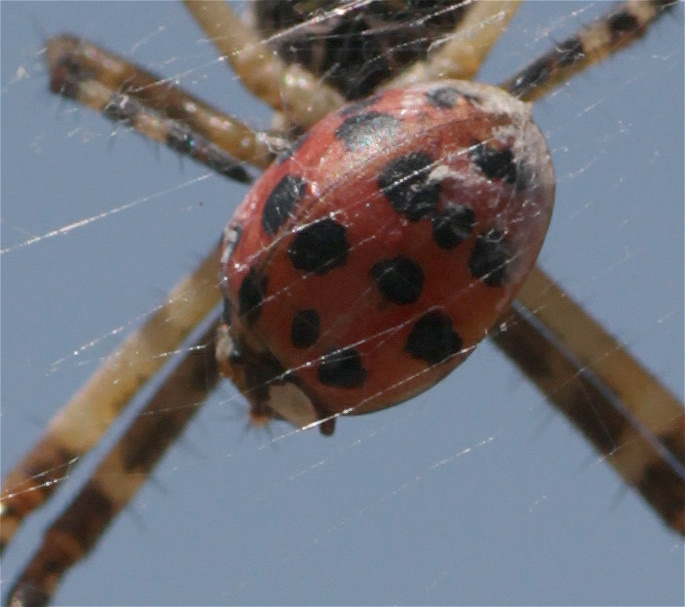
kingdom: Animalia
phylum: Arthropoda
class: Insecta
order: Coleoptera
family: Coccinellidae
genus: Harmonia
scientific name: Harmonia axyridis
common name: Harlequin ladybird
